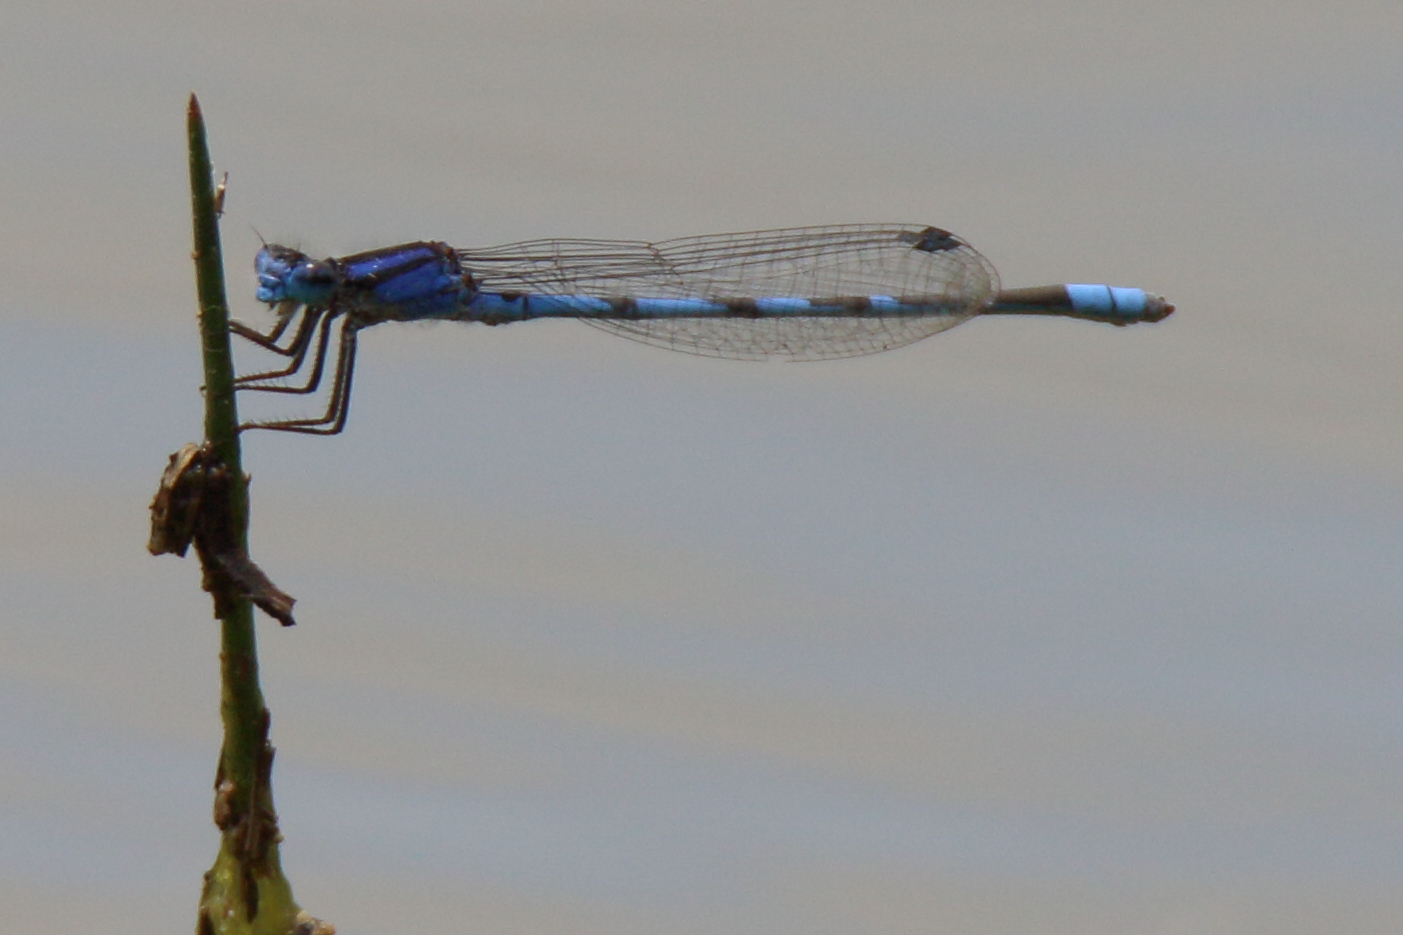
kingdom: Animalia
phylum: Arthropoda
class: Insecta
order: Odonata
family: Coenagrionidae
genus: Enallagma
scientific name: Enallagma civile
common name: Damselfly
